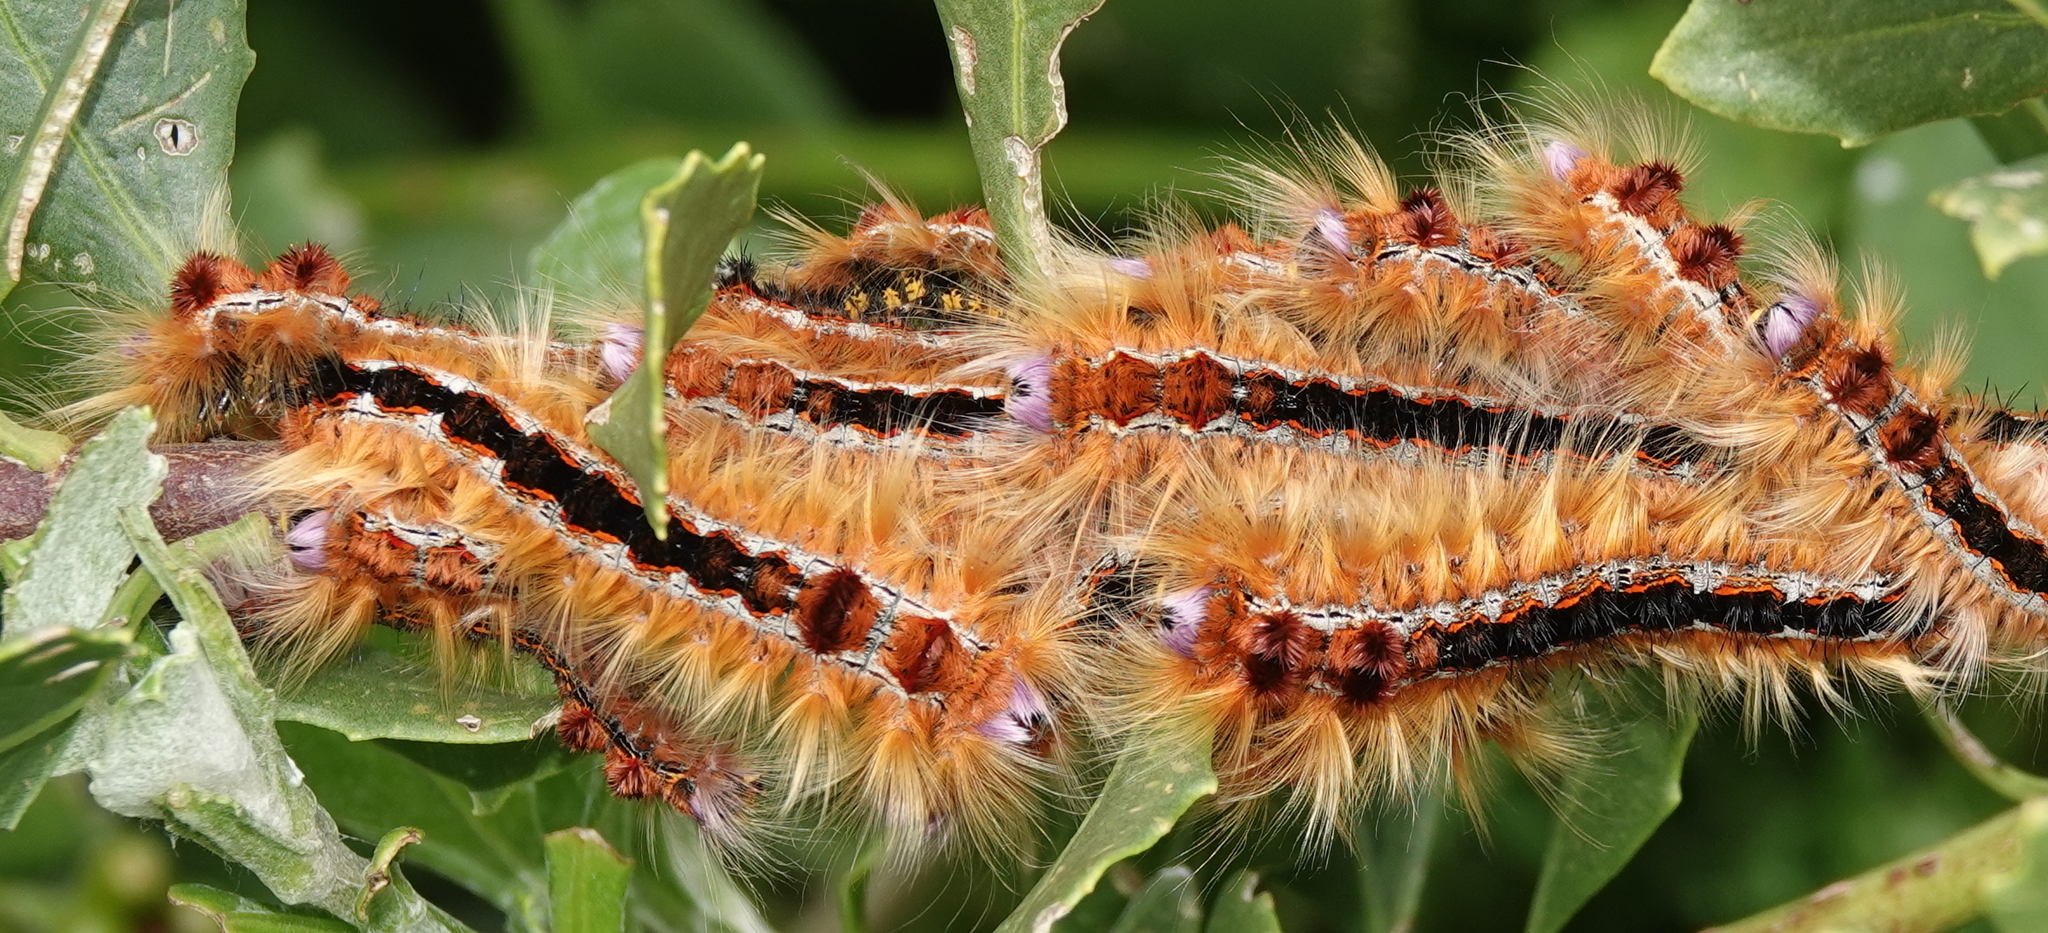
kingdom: Animalia
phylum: Arthropoda
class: Insecta
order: Lepidoptera
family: Lasiocampidae
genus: Eutricha
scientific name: Eutricha capensis
